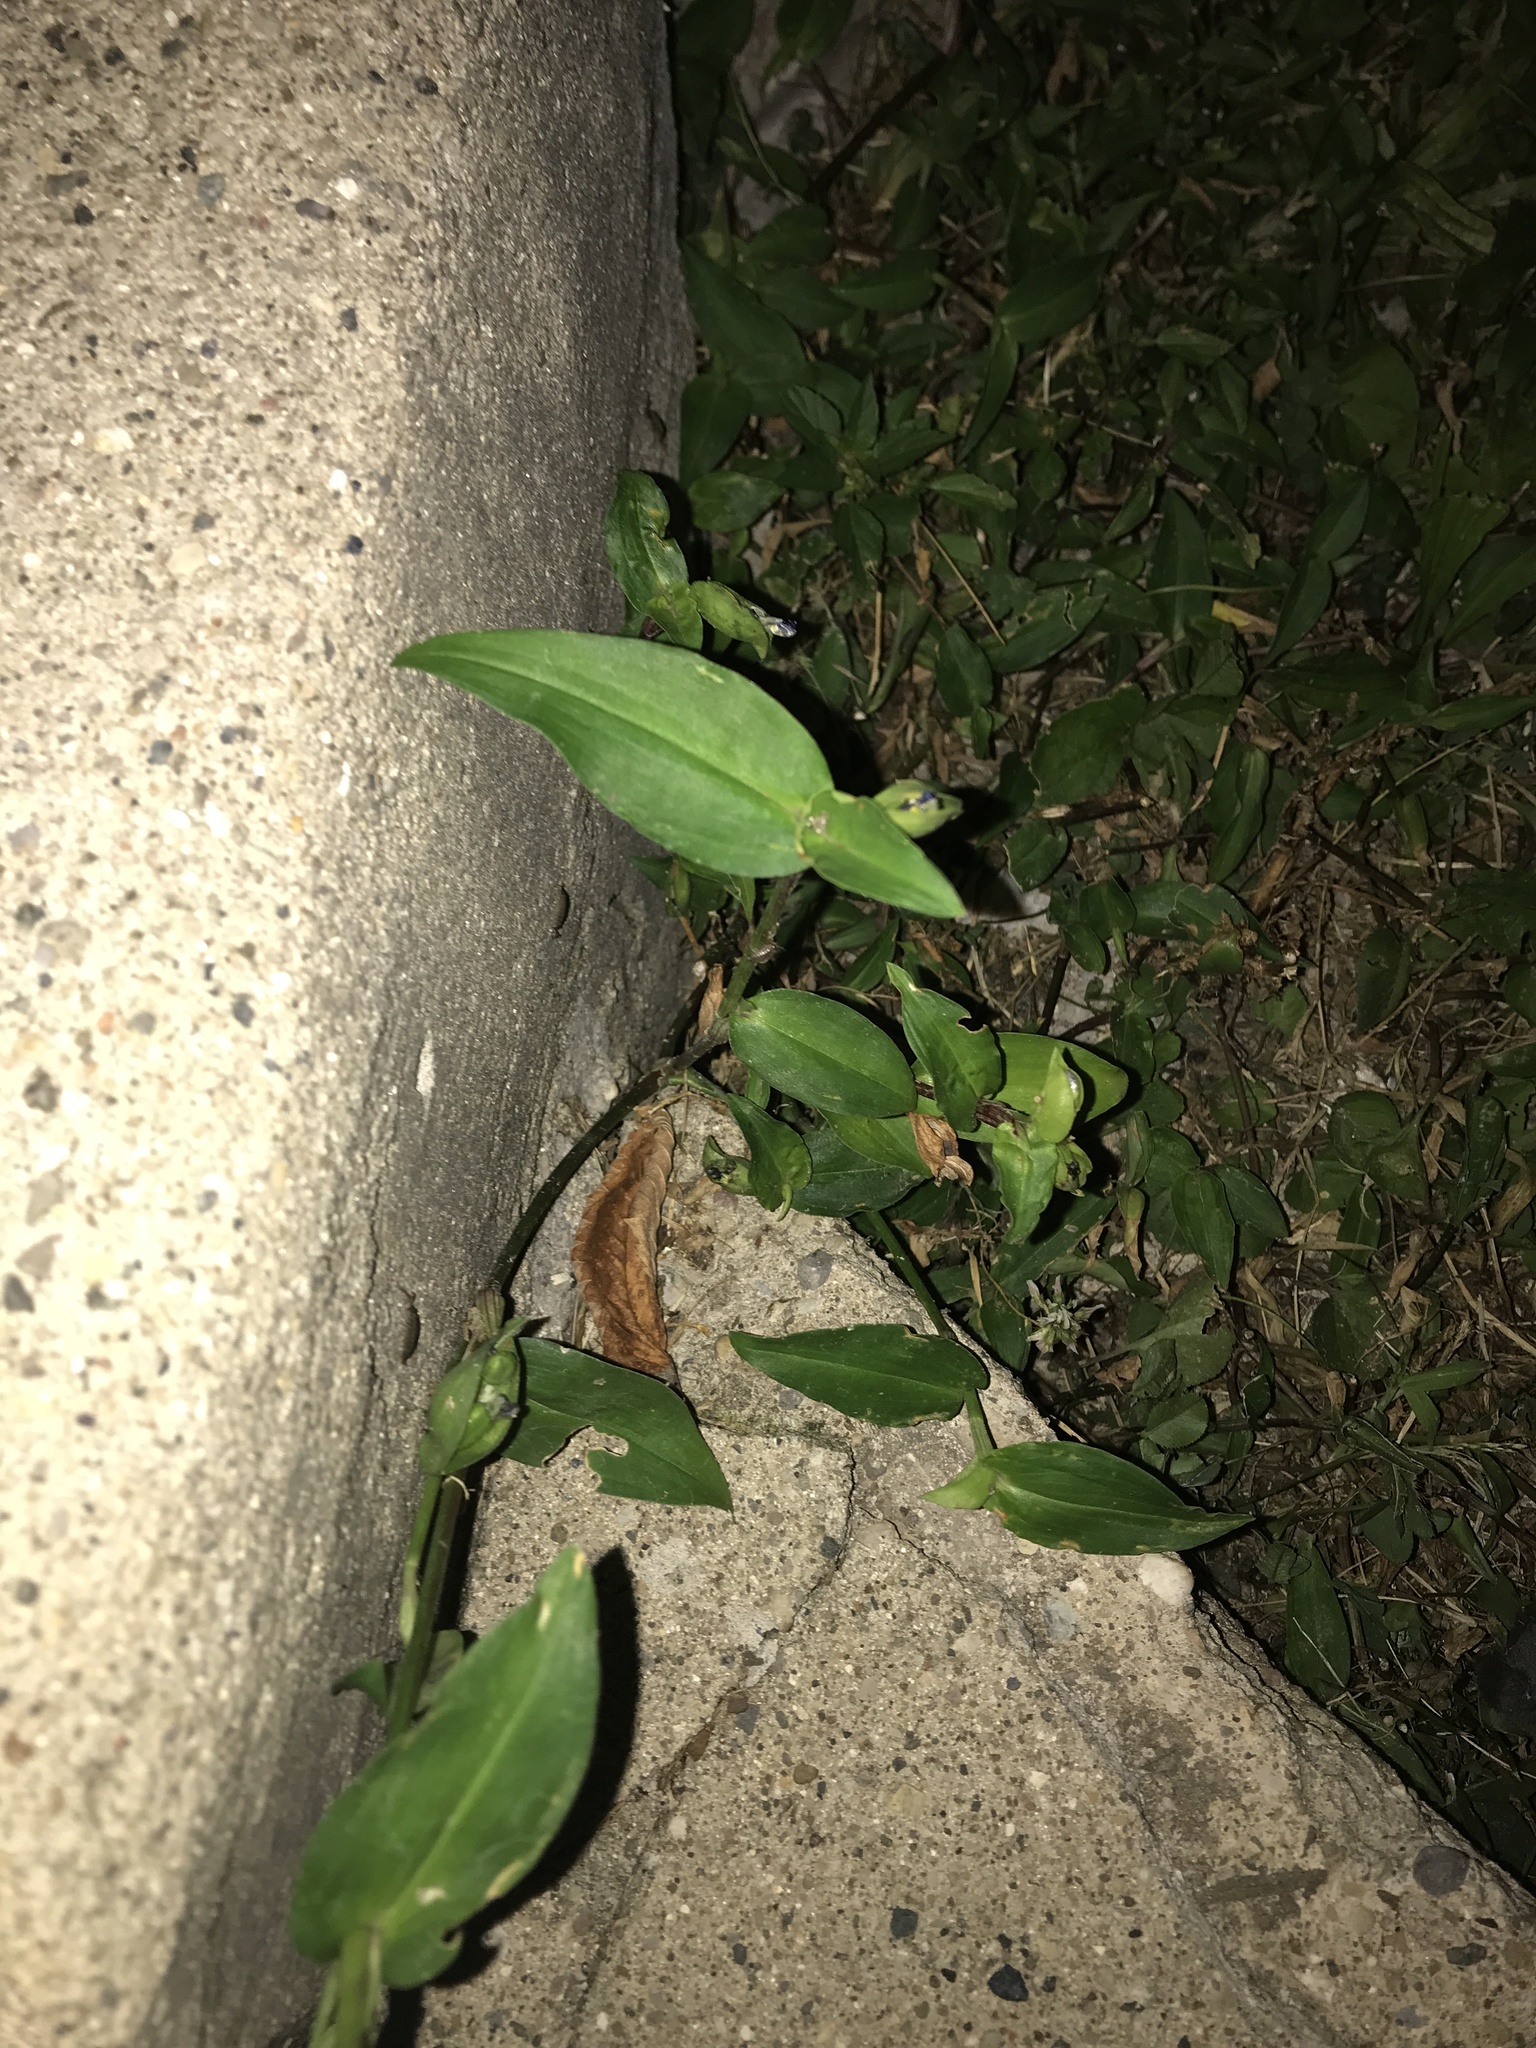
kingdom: Plantae
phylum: Tracheophyta
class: Liliopsida
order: Commelinales
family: Commelinaceae
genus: Commelina
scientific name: Commelina communis
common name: Asiatic dayflower
